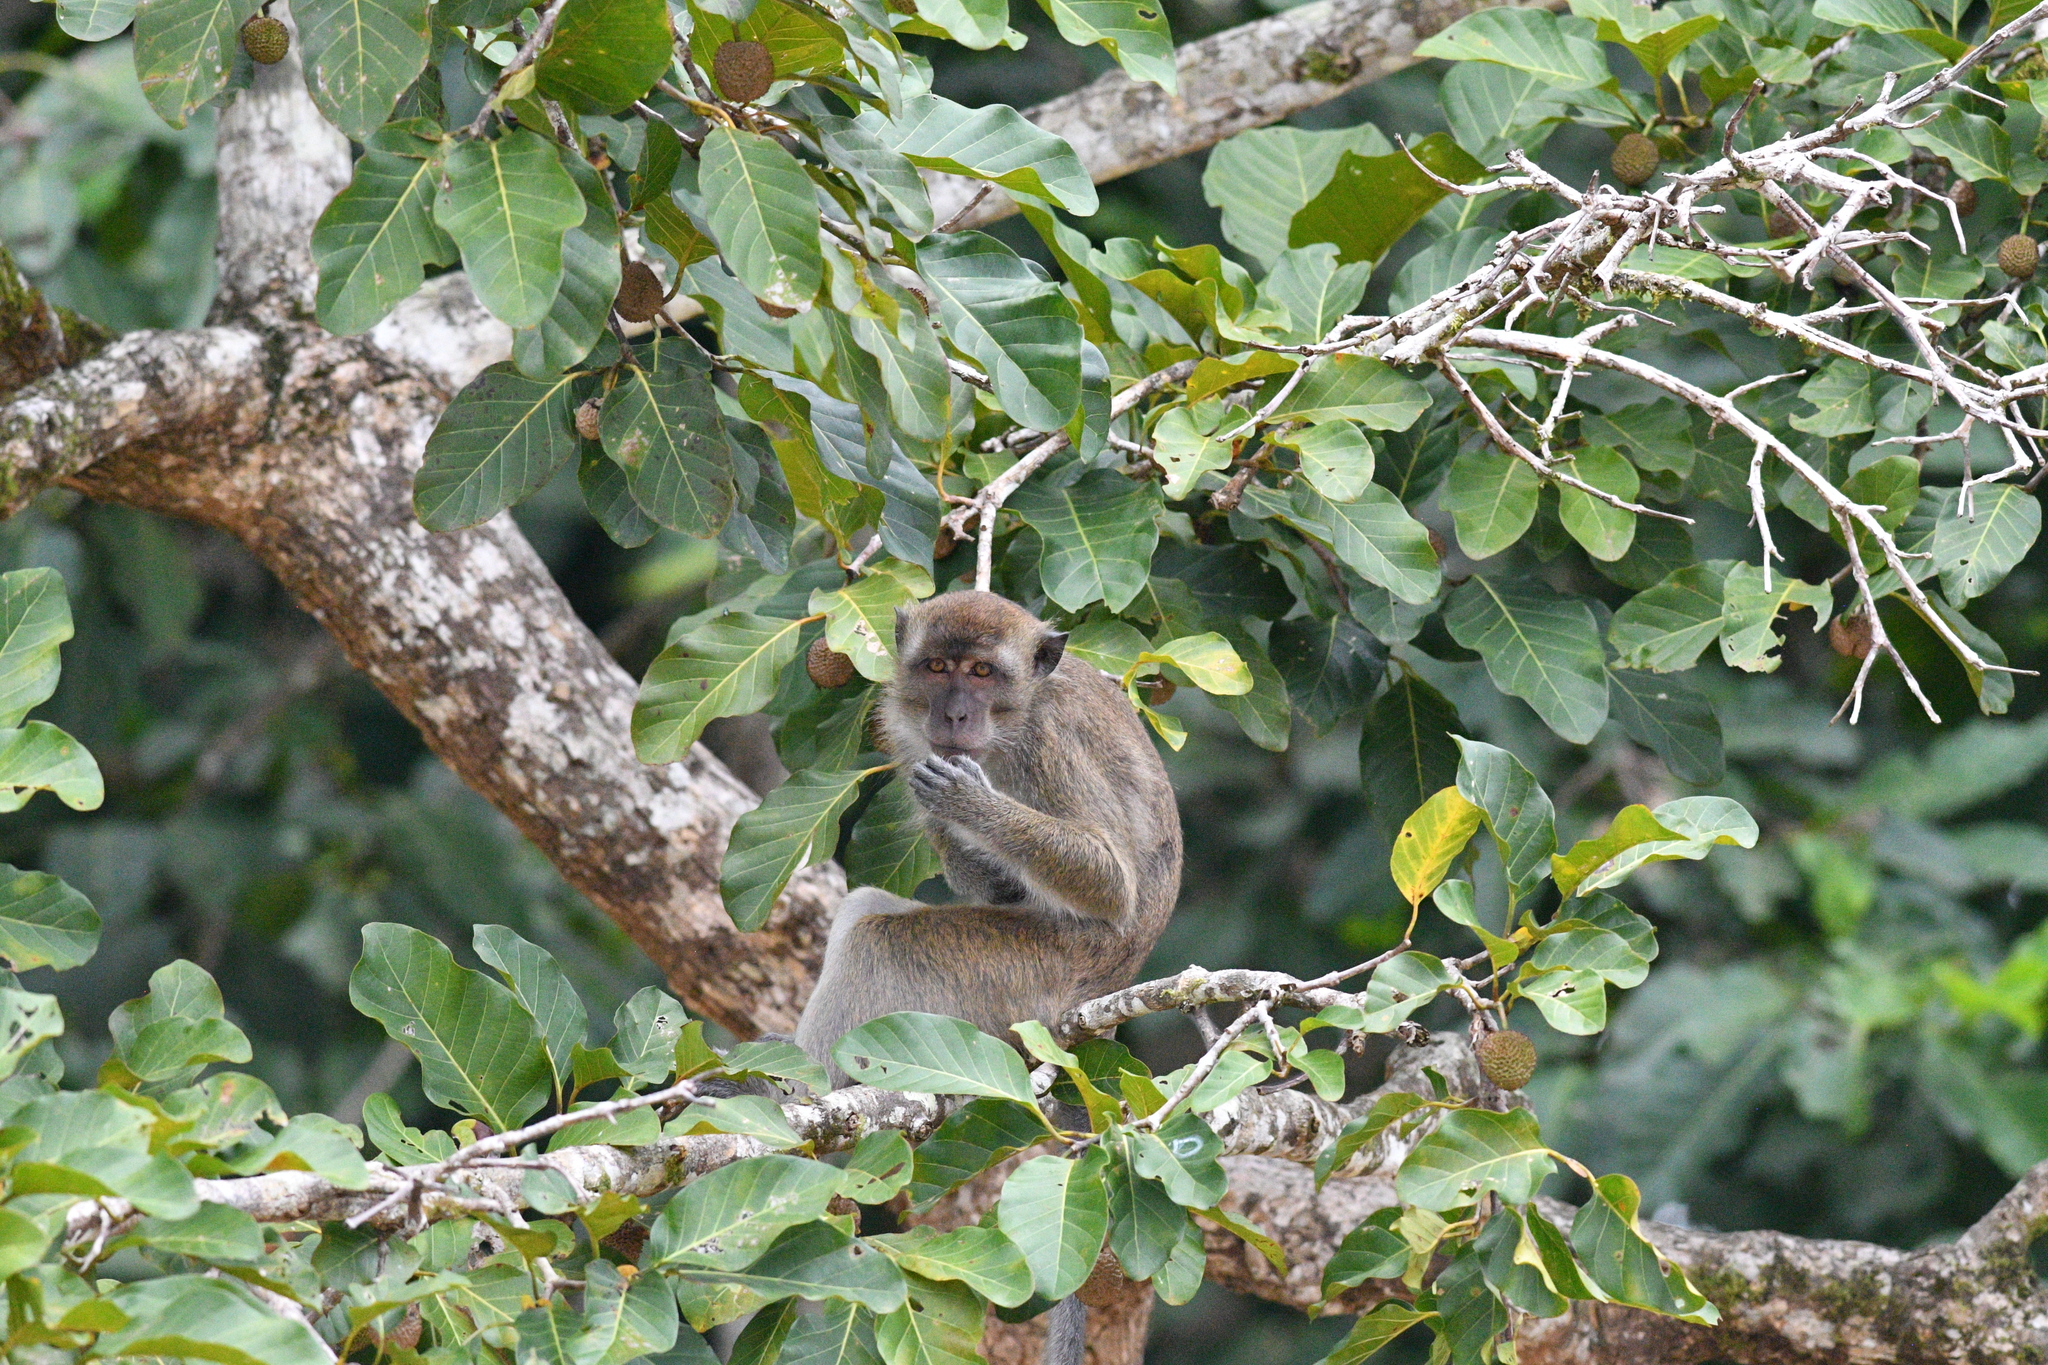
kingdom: Animalia
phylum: Chordata
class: Mammalia
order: Primates
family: Cercopithecidae
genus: Macaca
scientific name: Macaca fascicularis
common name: Crab-eating macaque
